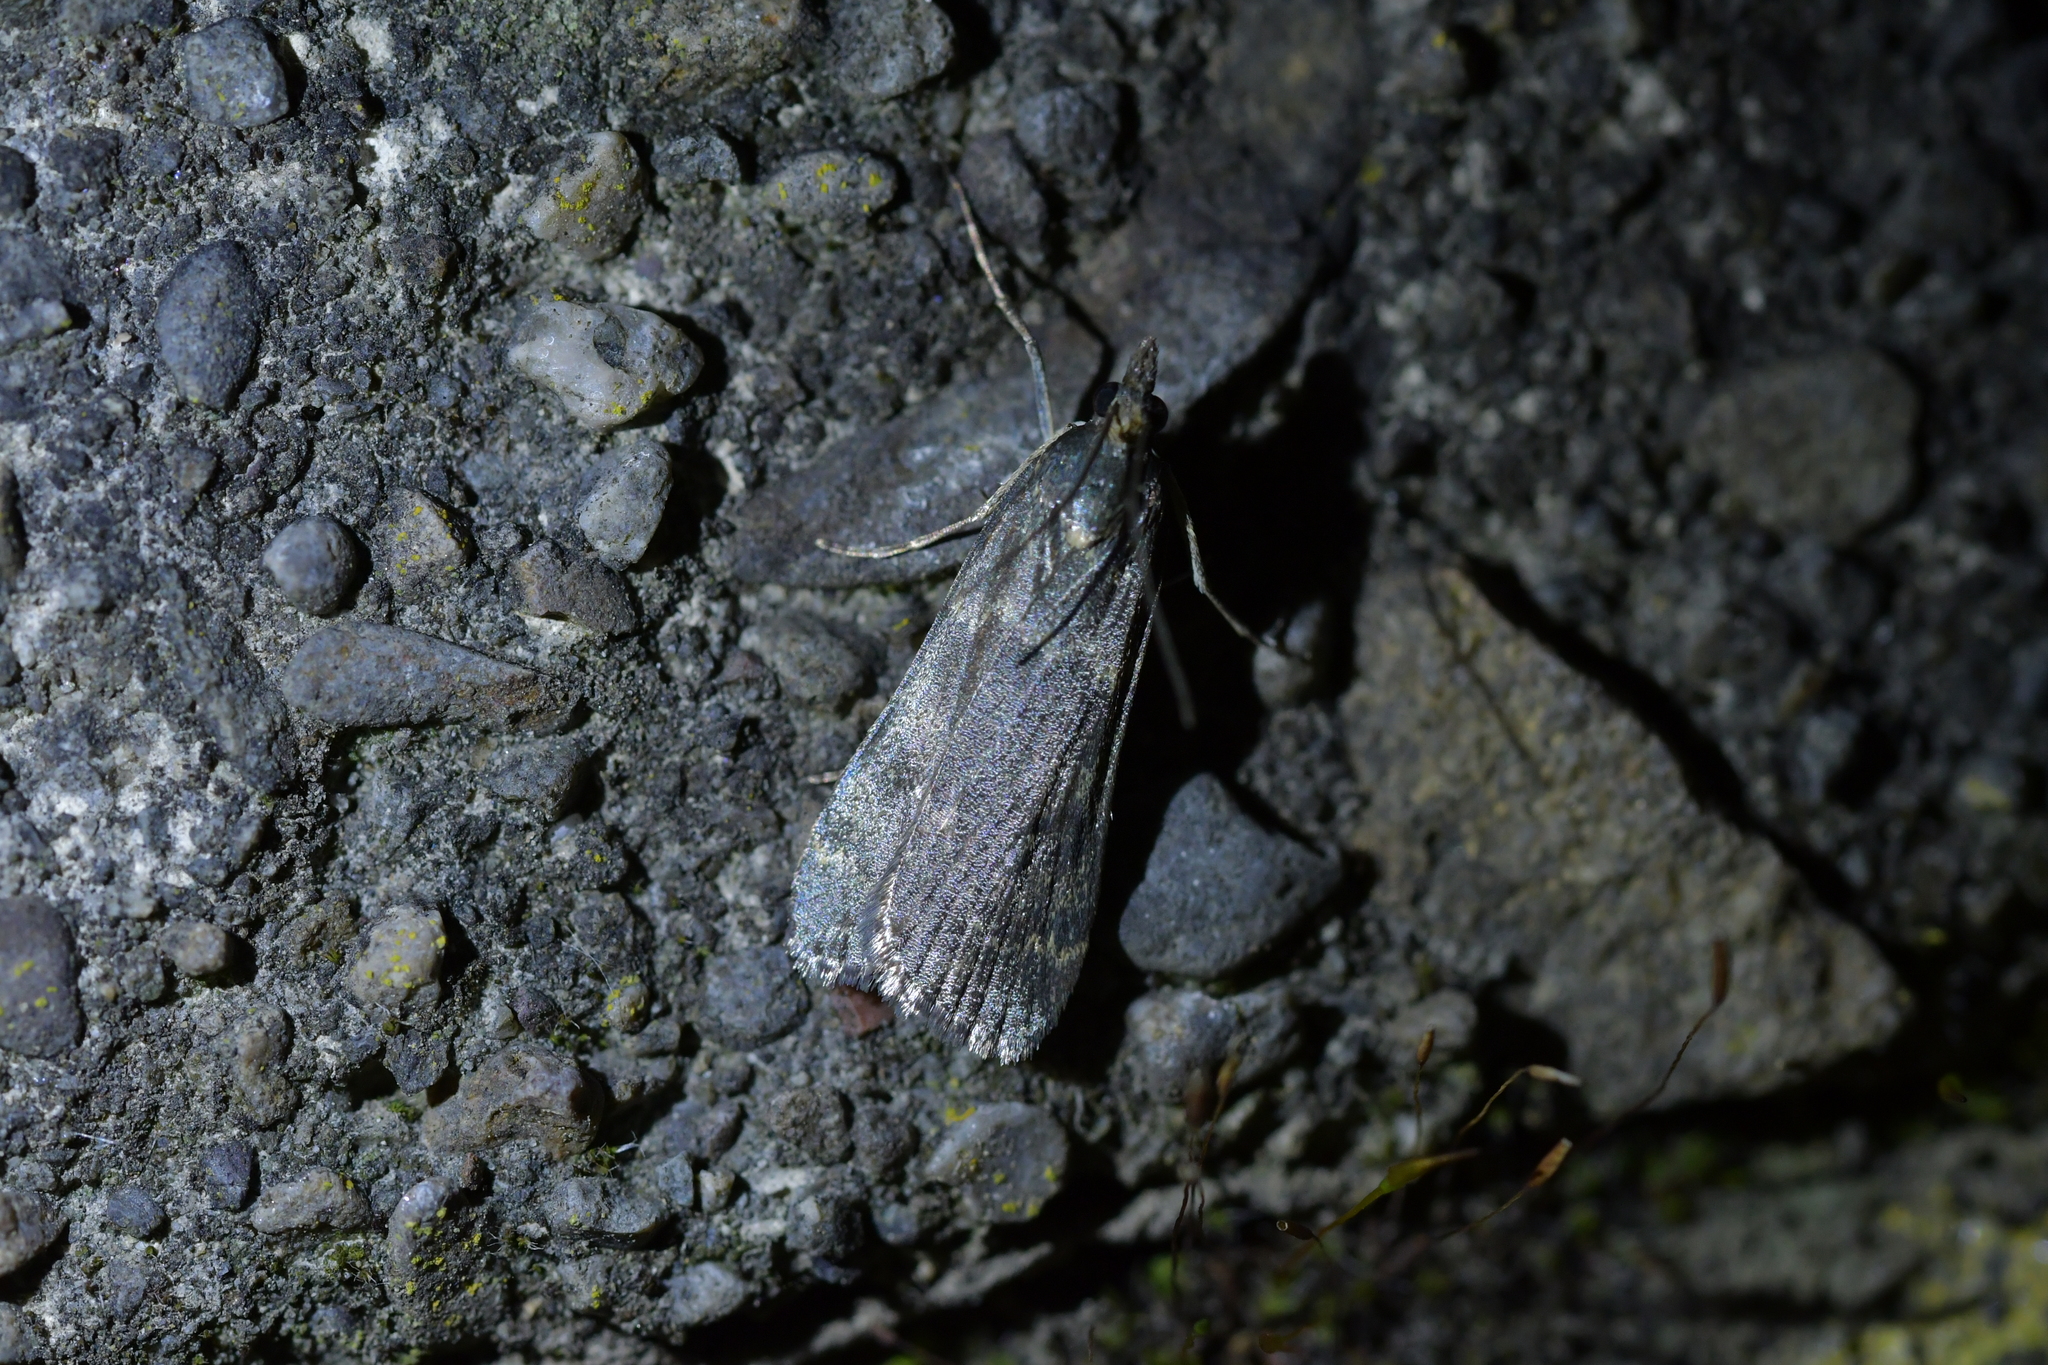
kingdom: Animalia
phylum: Arthropoda
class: Insecta
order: Lepidoptera
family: Crambidae
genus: Eudonia
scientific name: Eudonia cataxesta
